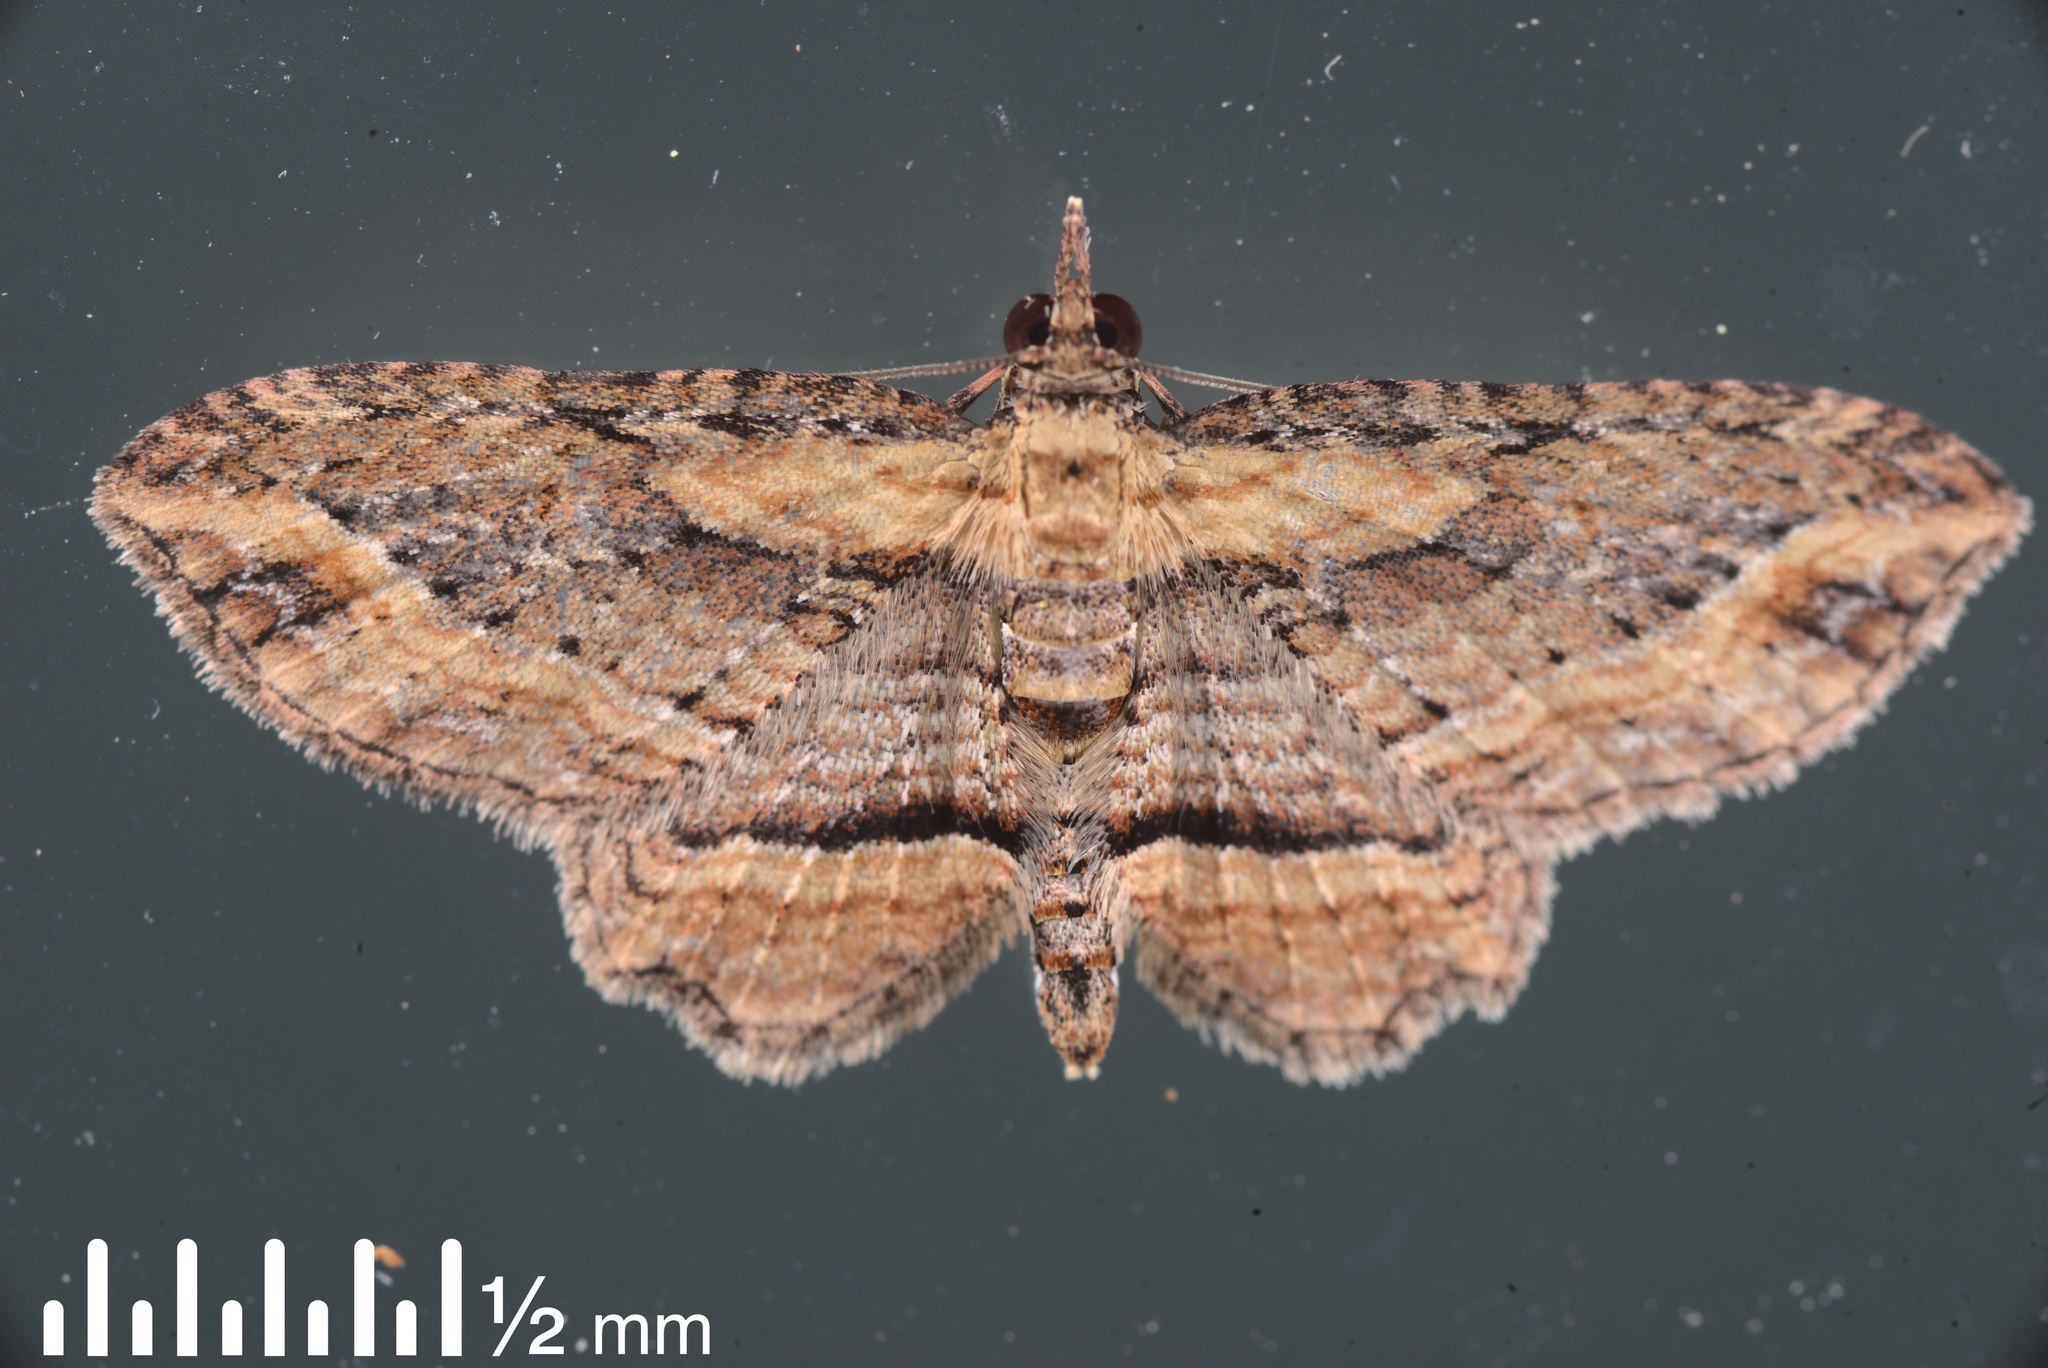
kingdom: Animalia
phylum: Arthropoda
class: Insecta
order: Lepidoptera
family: Geometridae
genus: Chloroclystis
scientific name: Chloroclystis filata
